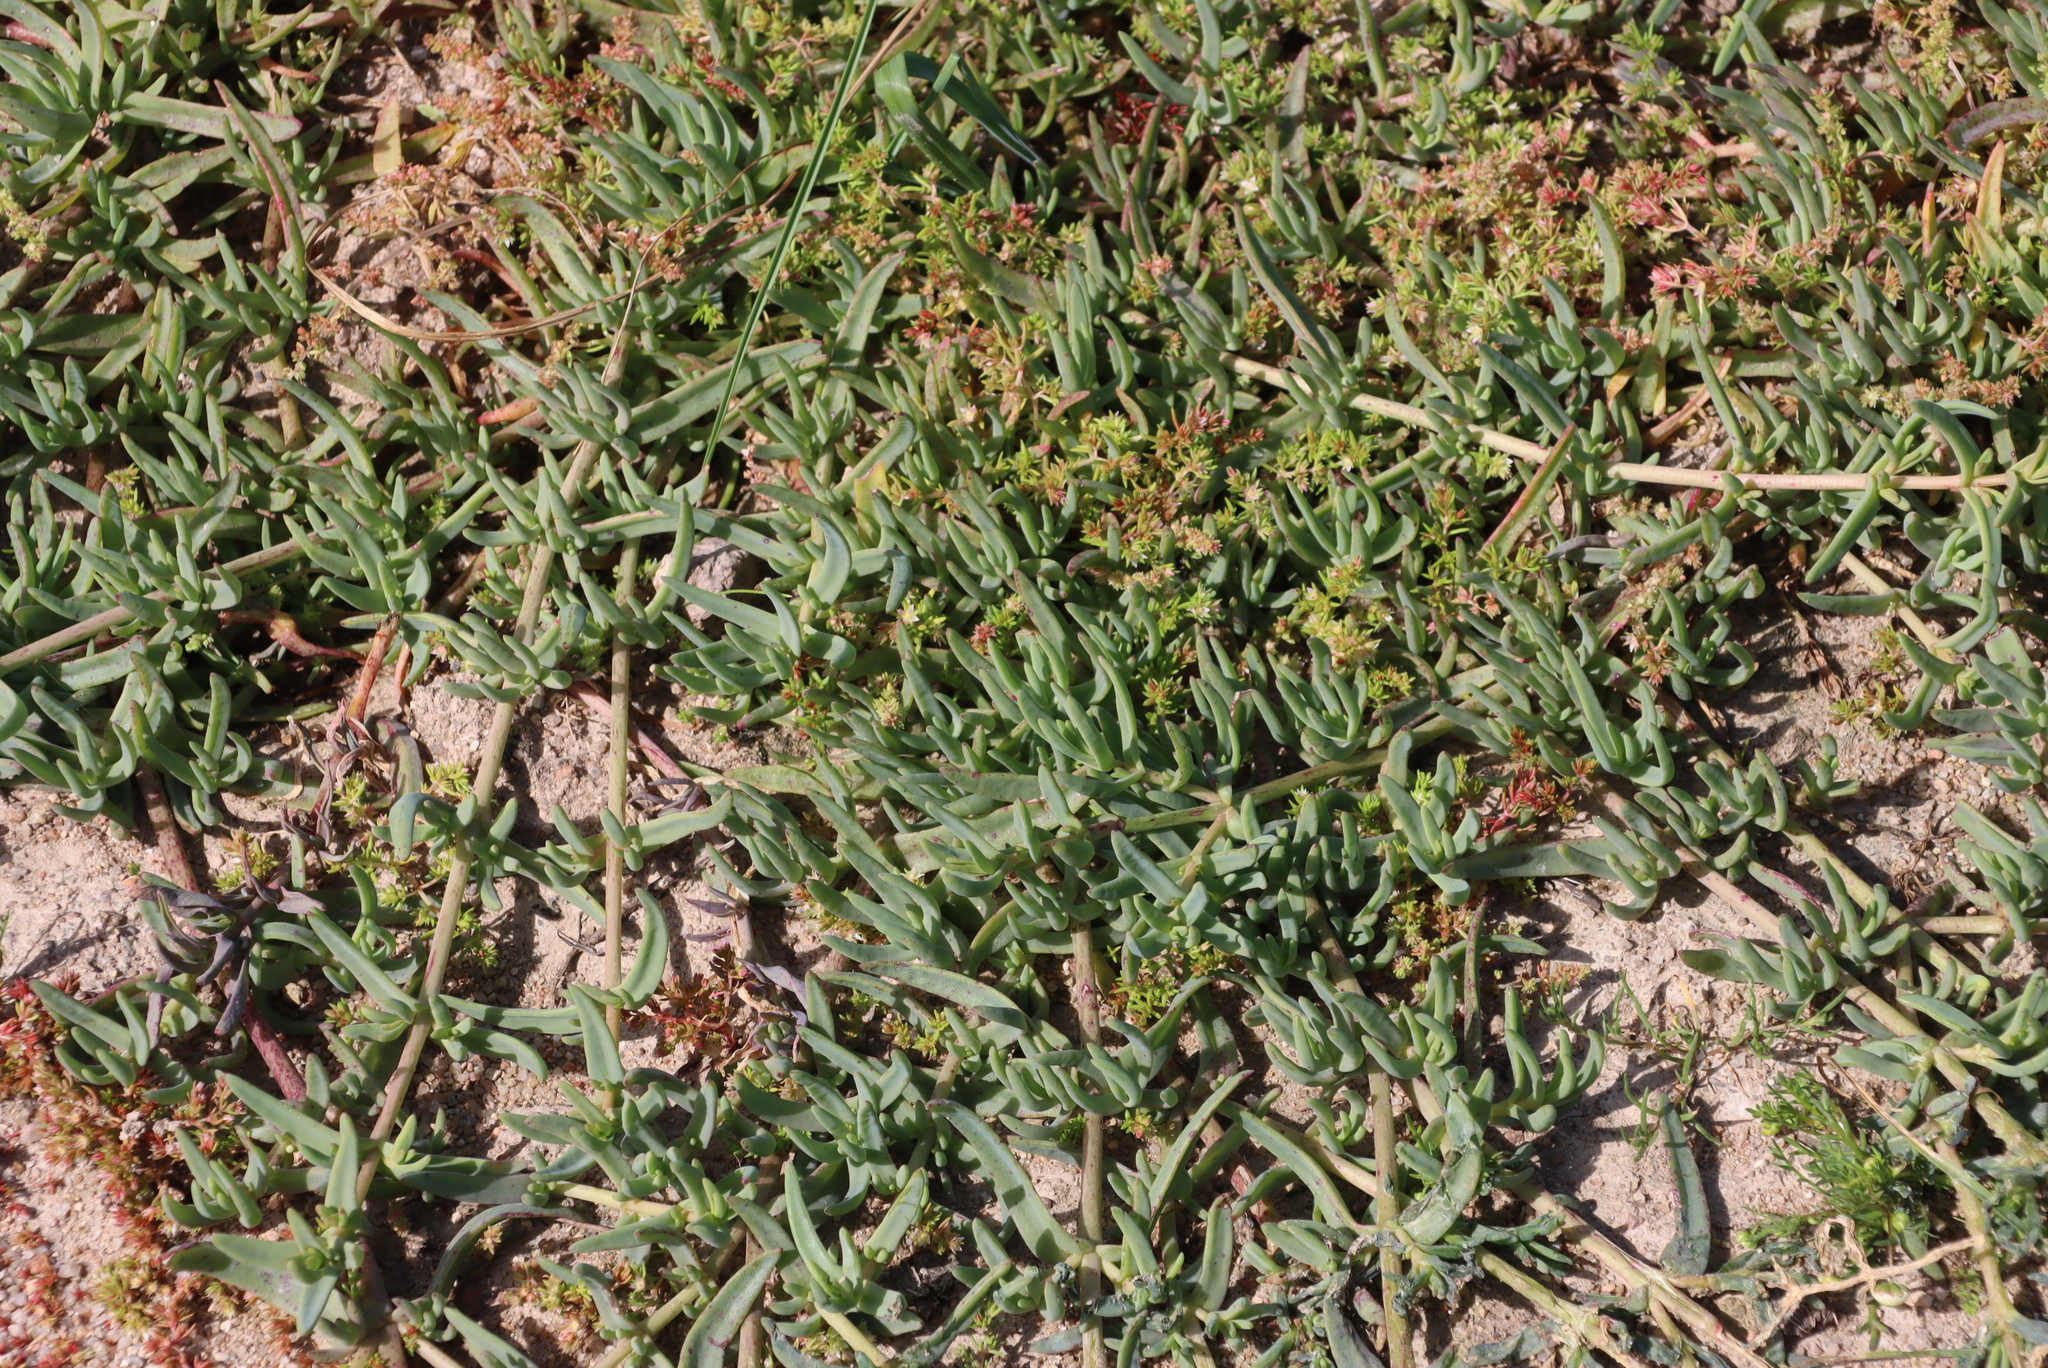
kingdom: Plantae
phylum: Tracheophyta
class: Magnoliopsida
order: Caryophyllales
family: Aizoaceae
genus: Mesembryanthemum
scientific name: Mesembryanthemum pallens
